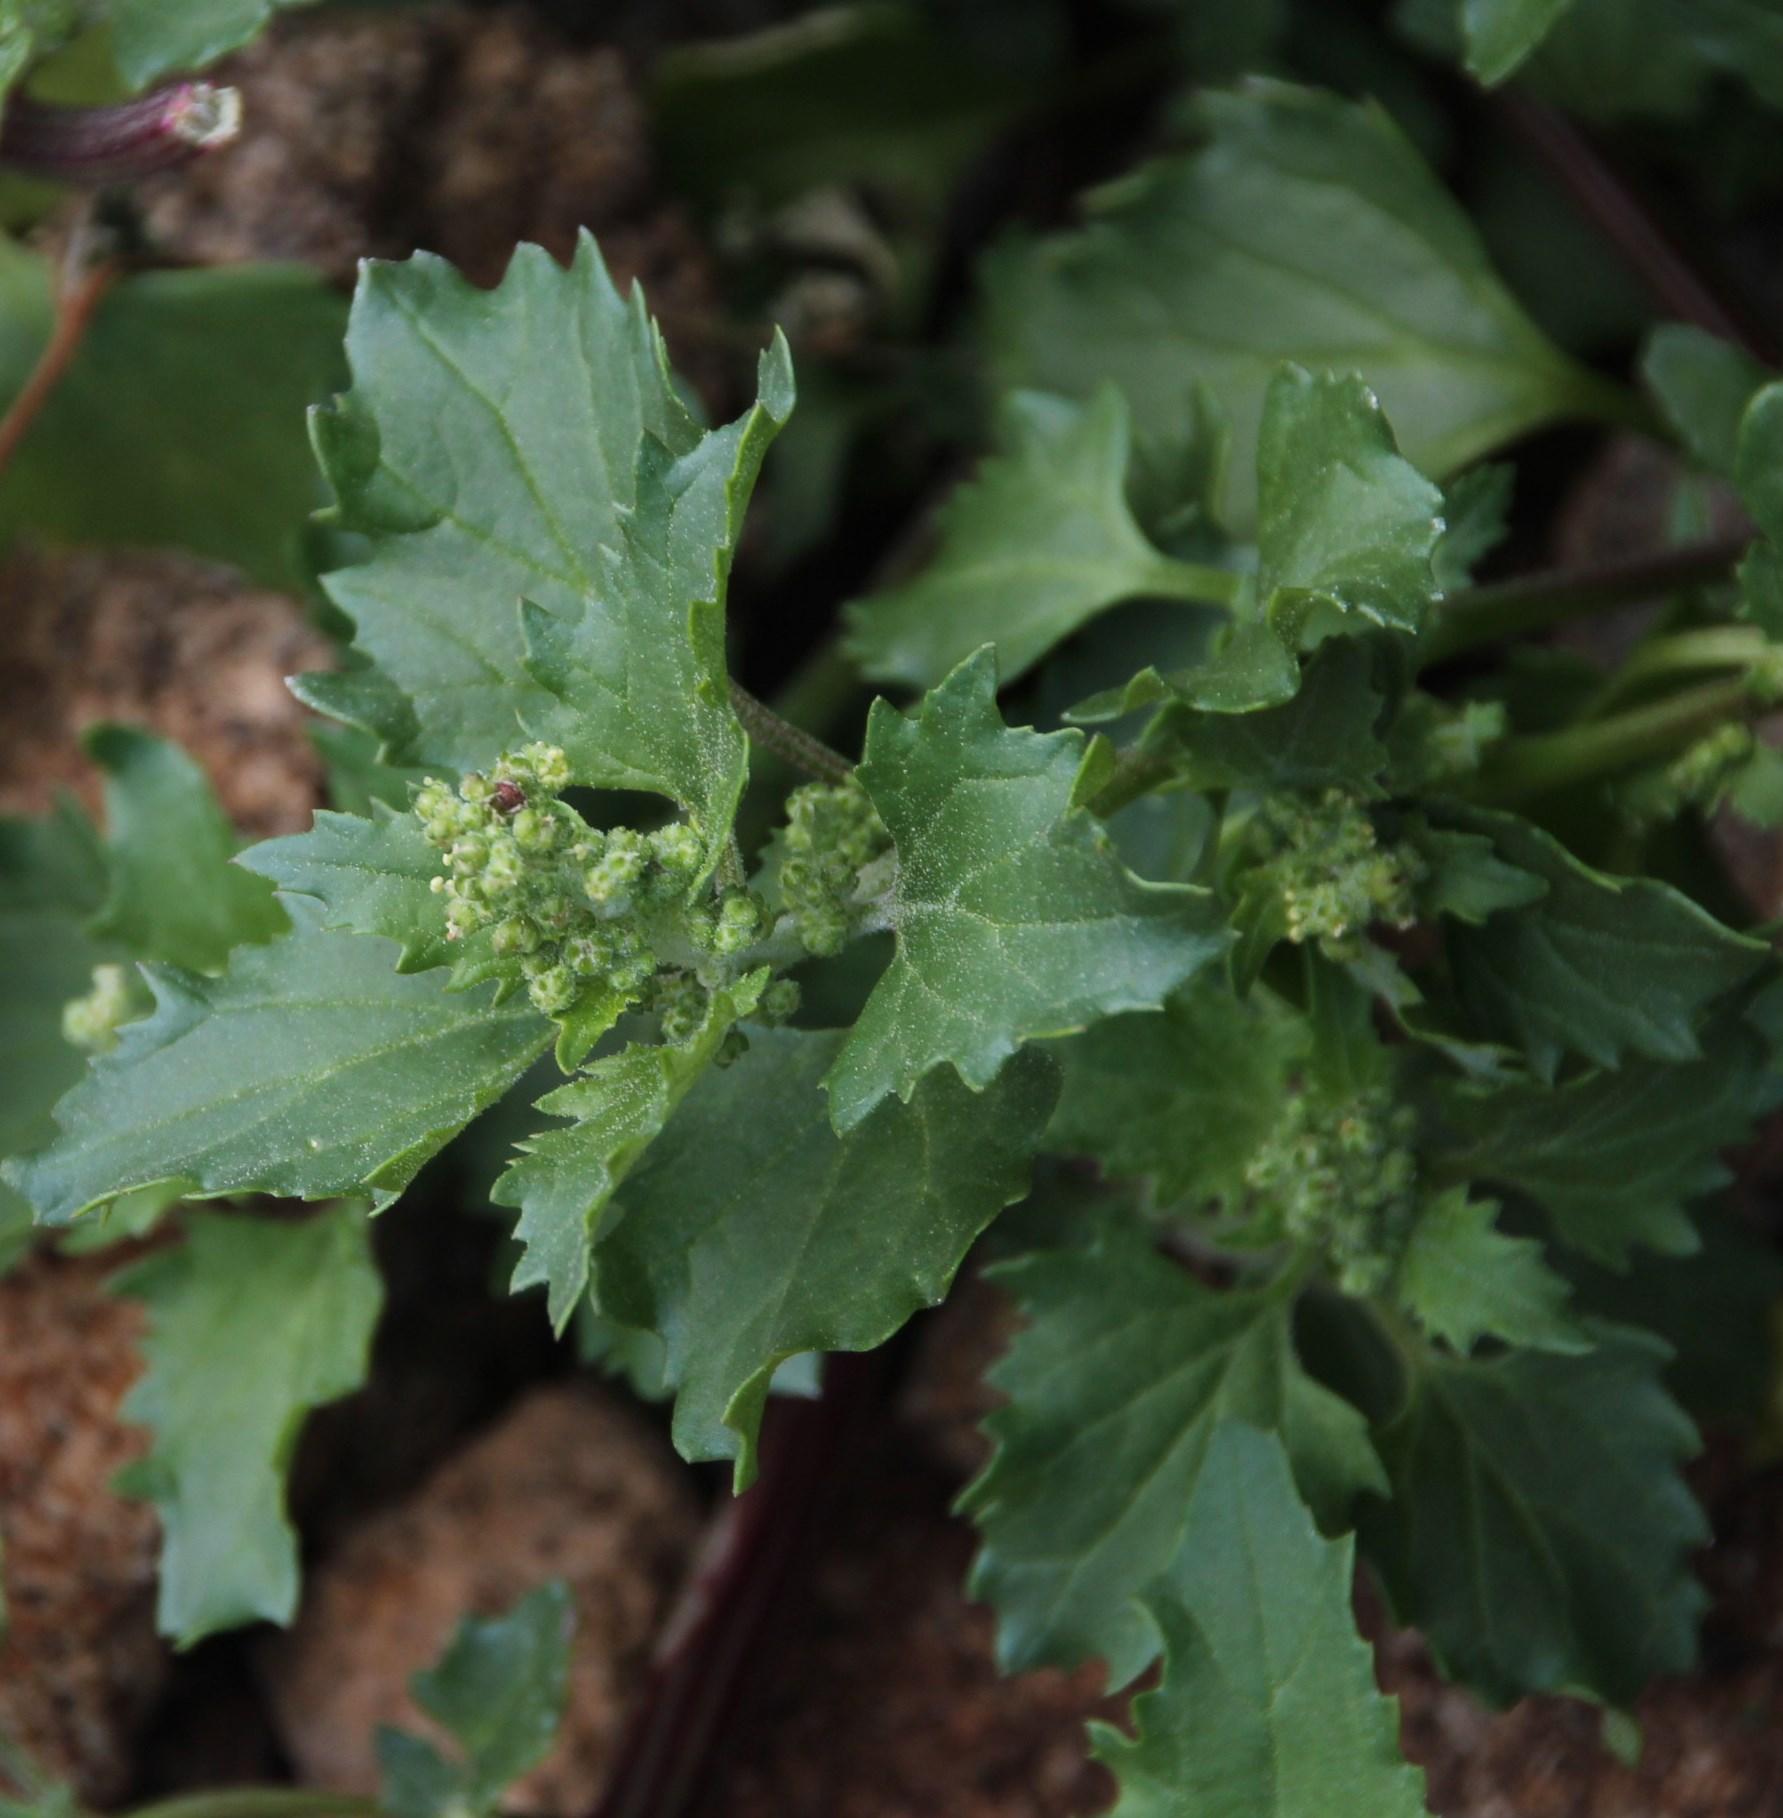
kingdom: Plantae
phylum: Tracheophyta
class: Magnoliopsida
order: Caryophyllales
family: Amaranthaceae
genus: Chenopodiastrum
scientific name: Chenopodiastrum murale
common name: Sowbane
